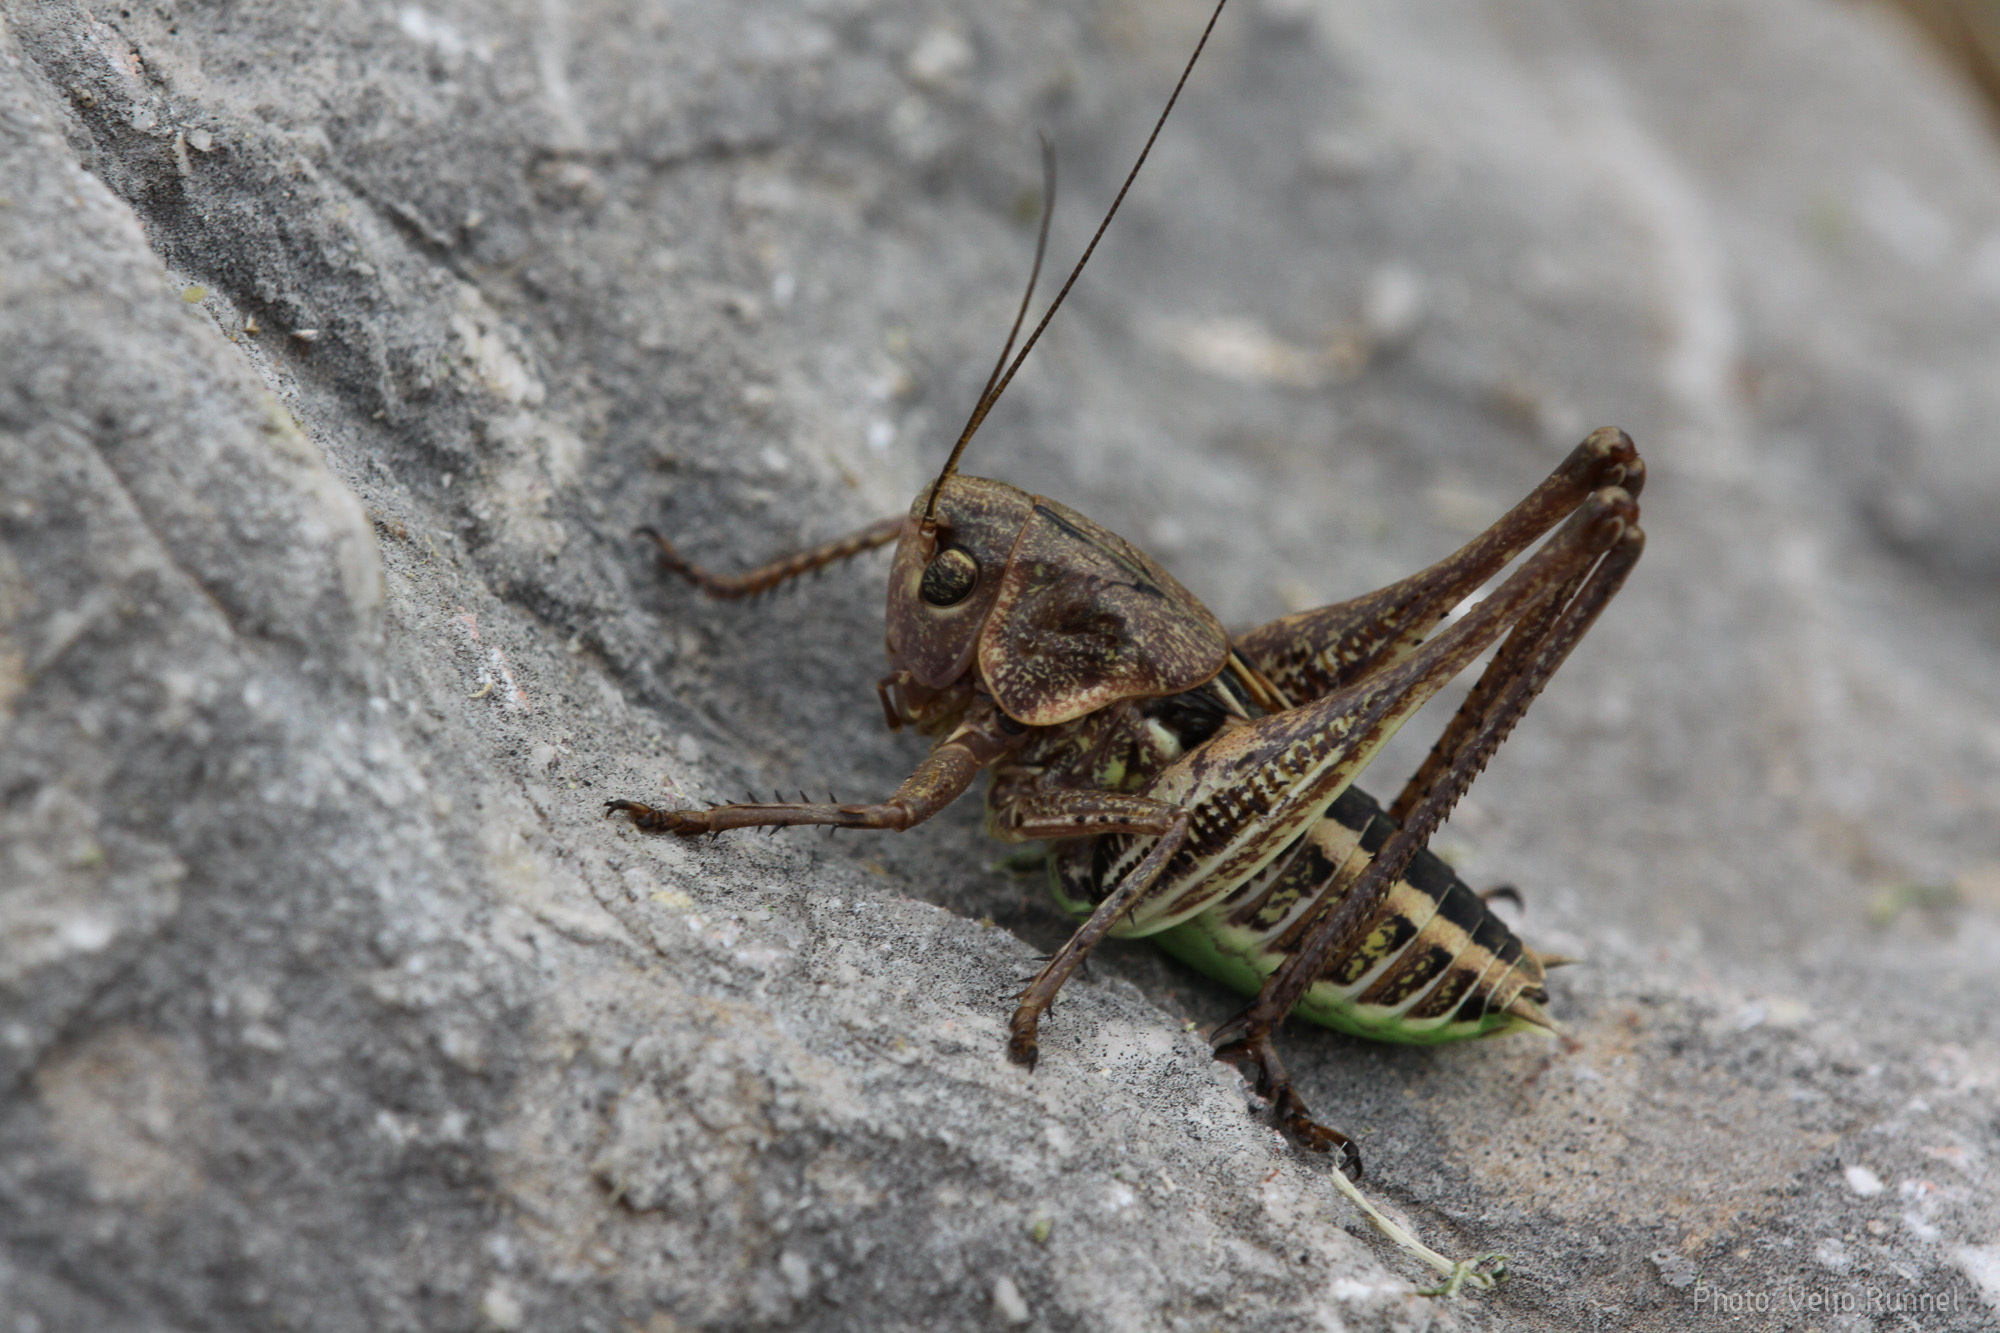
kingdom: Animalia
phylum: Arthropoda
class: Insecta
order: Orthoptera
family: Tettigoniidae
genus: Decticus
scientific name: Decticus albifrons
